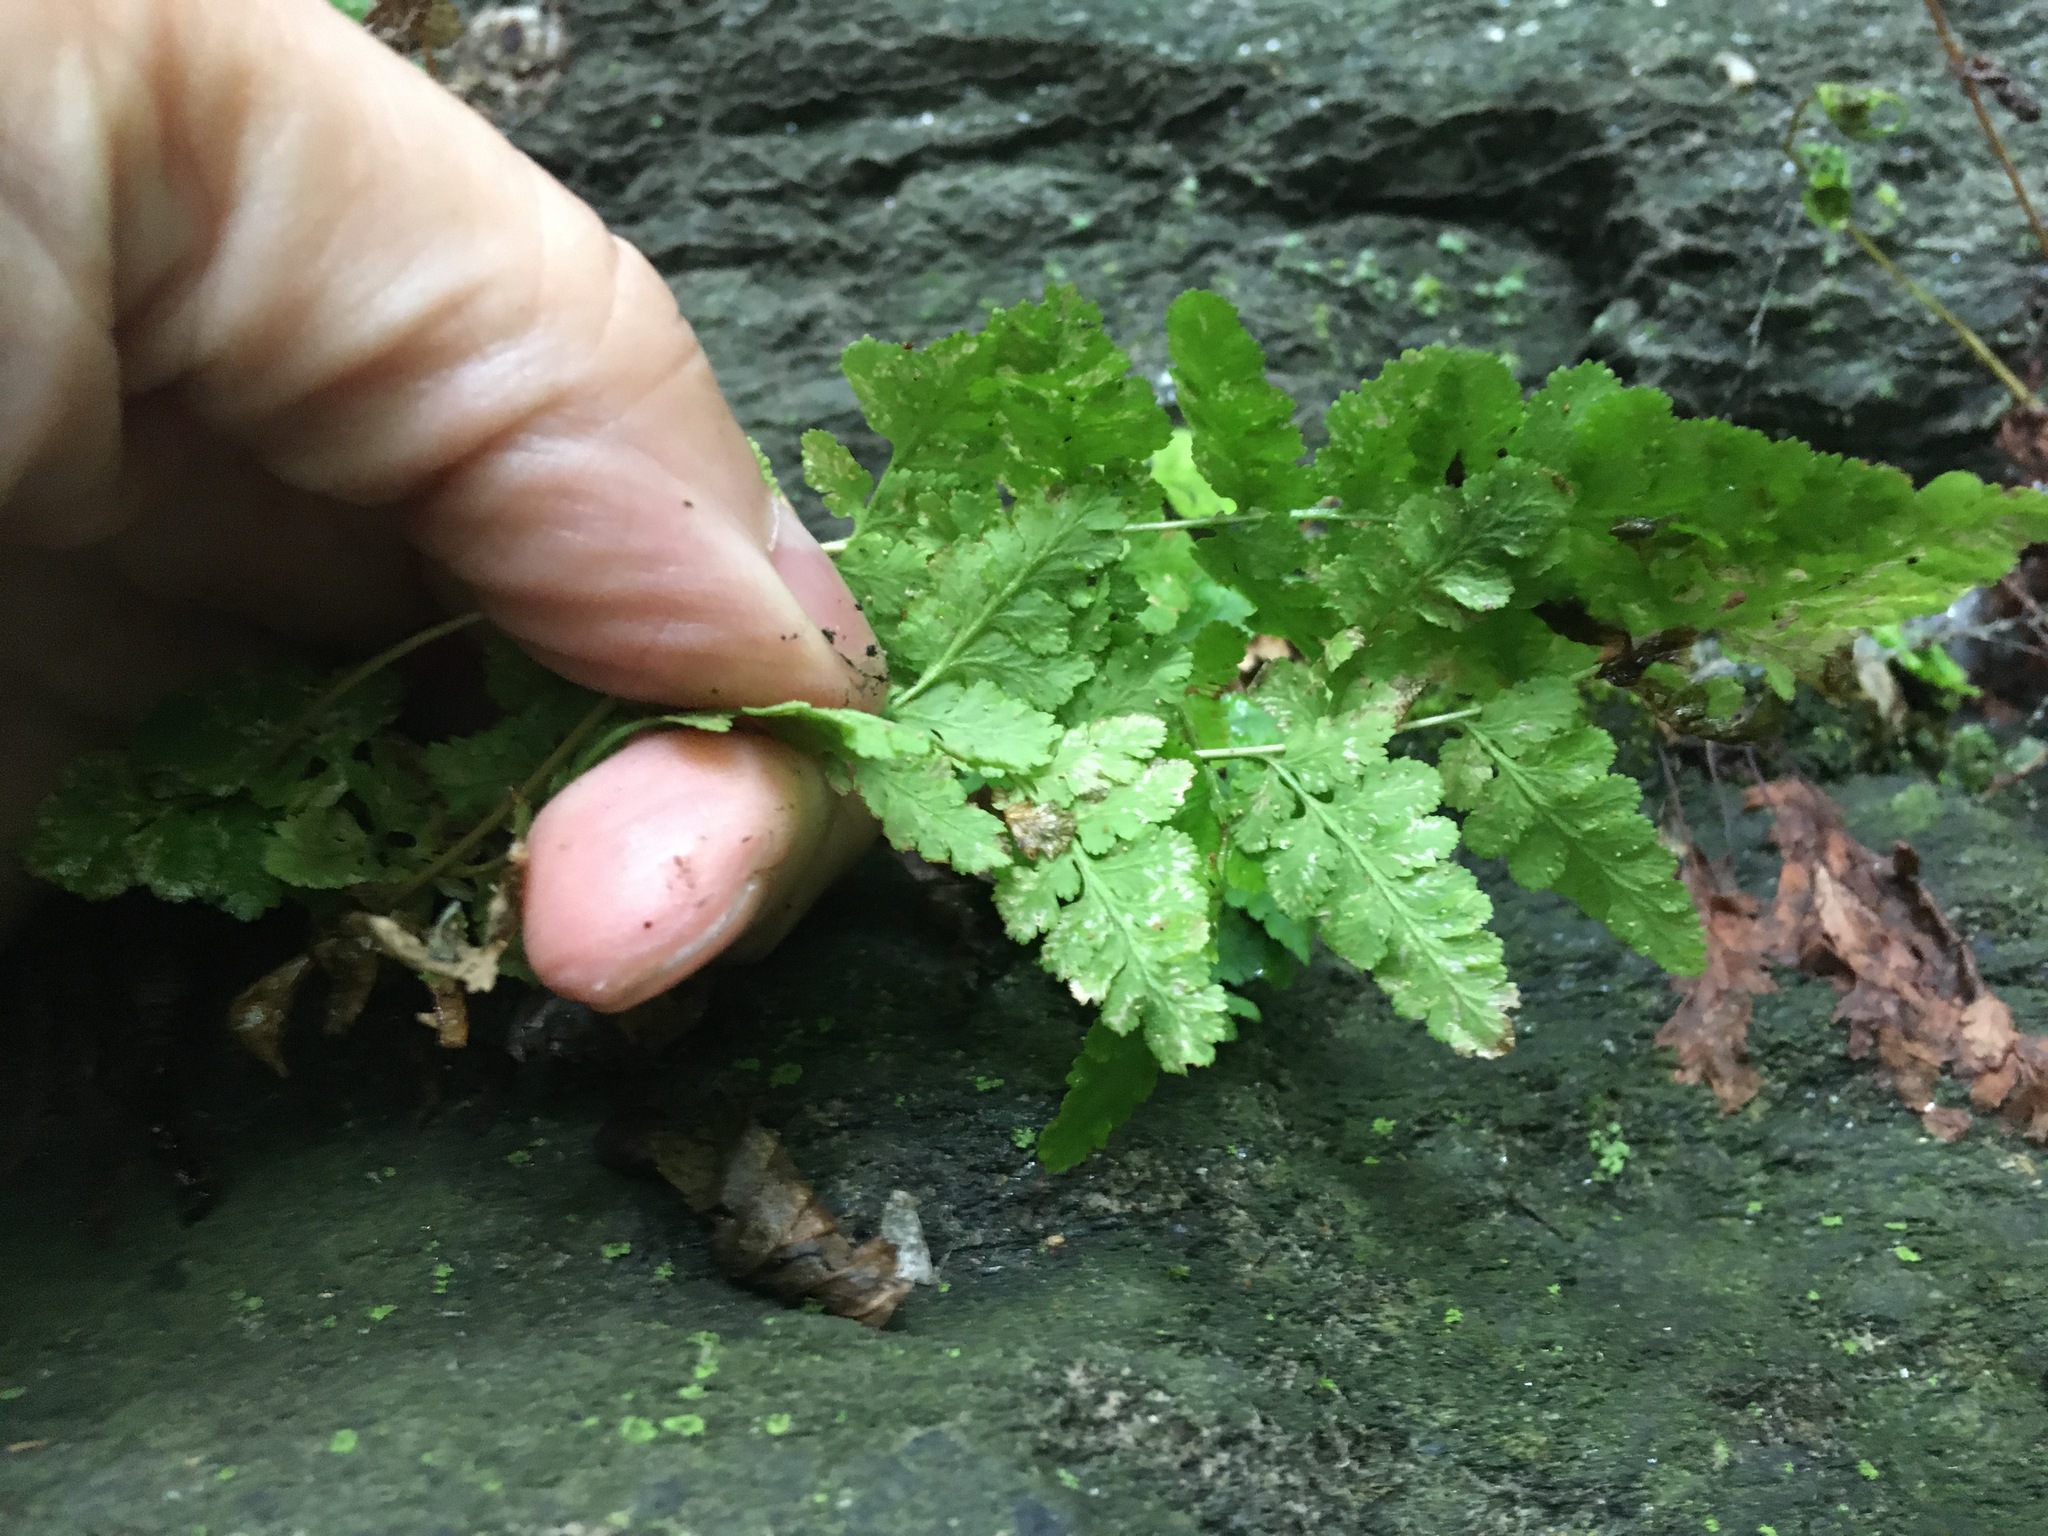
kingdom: Plantae
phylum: Tracheophyta
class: Polypodiopsida
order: Polypodiales
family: Woodsiaceae
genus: Physematium
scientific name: Physematium obtusum
